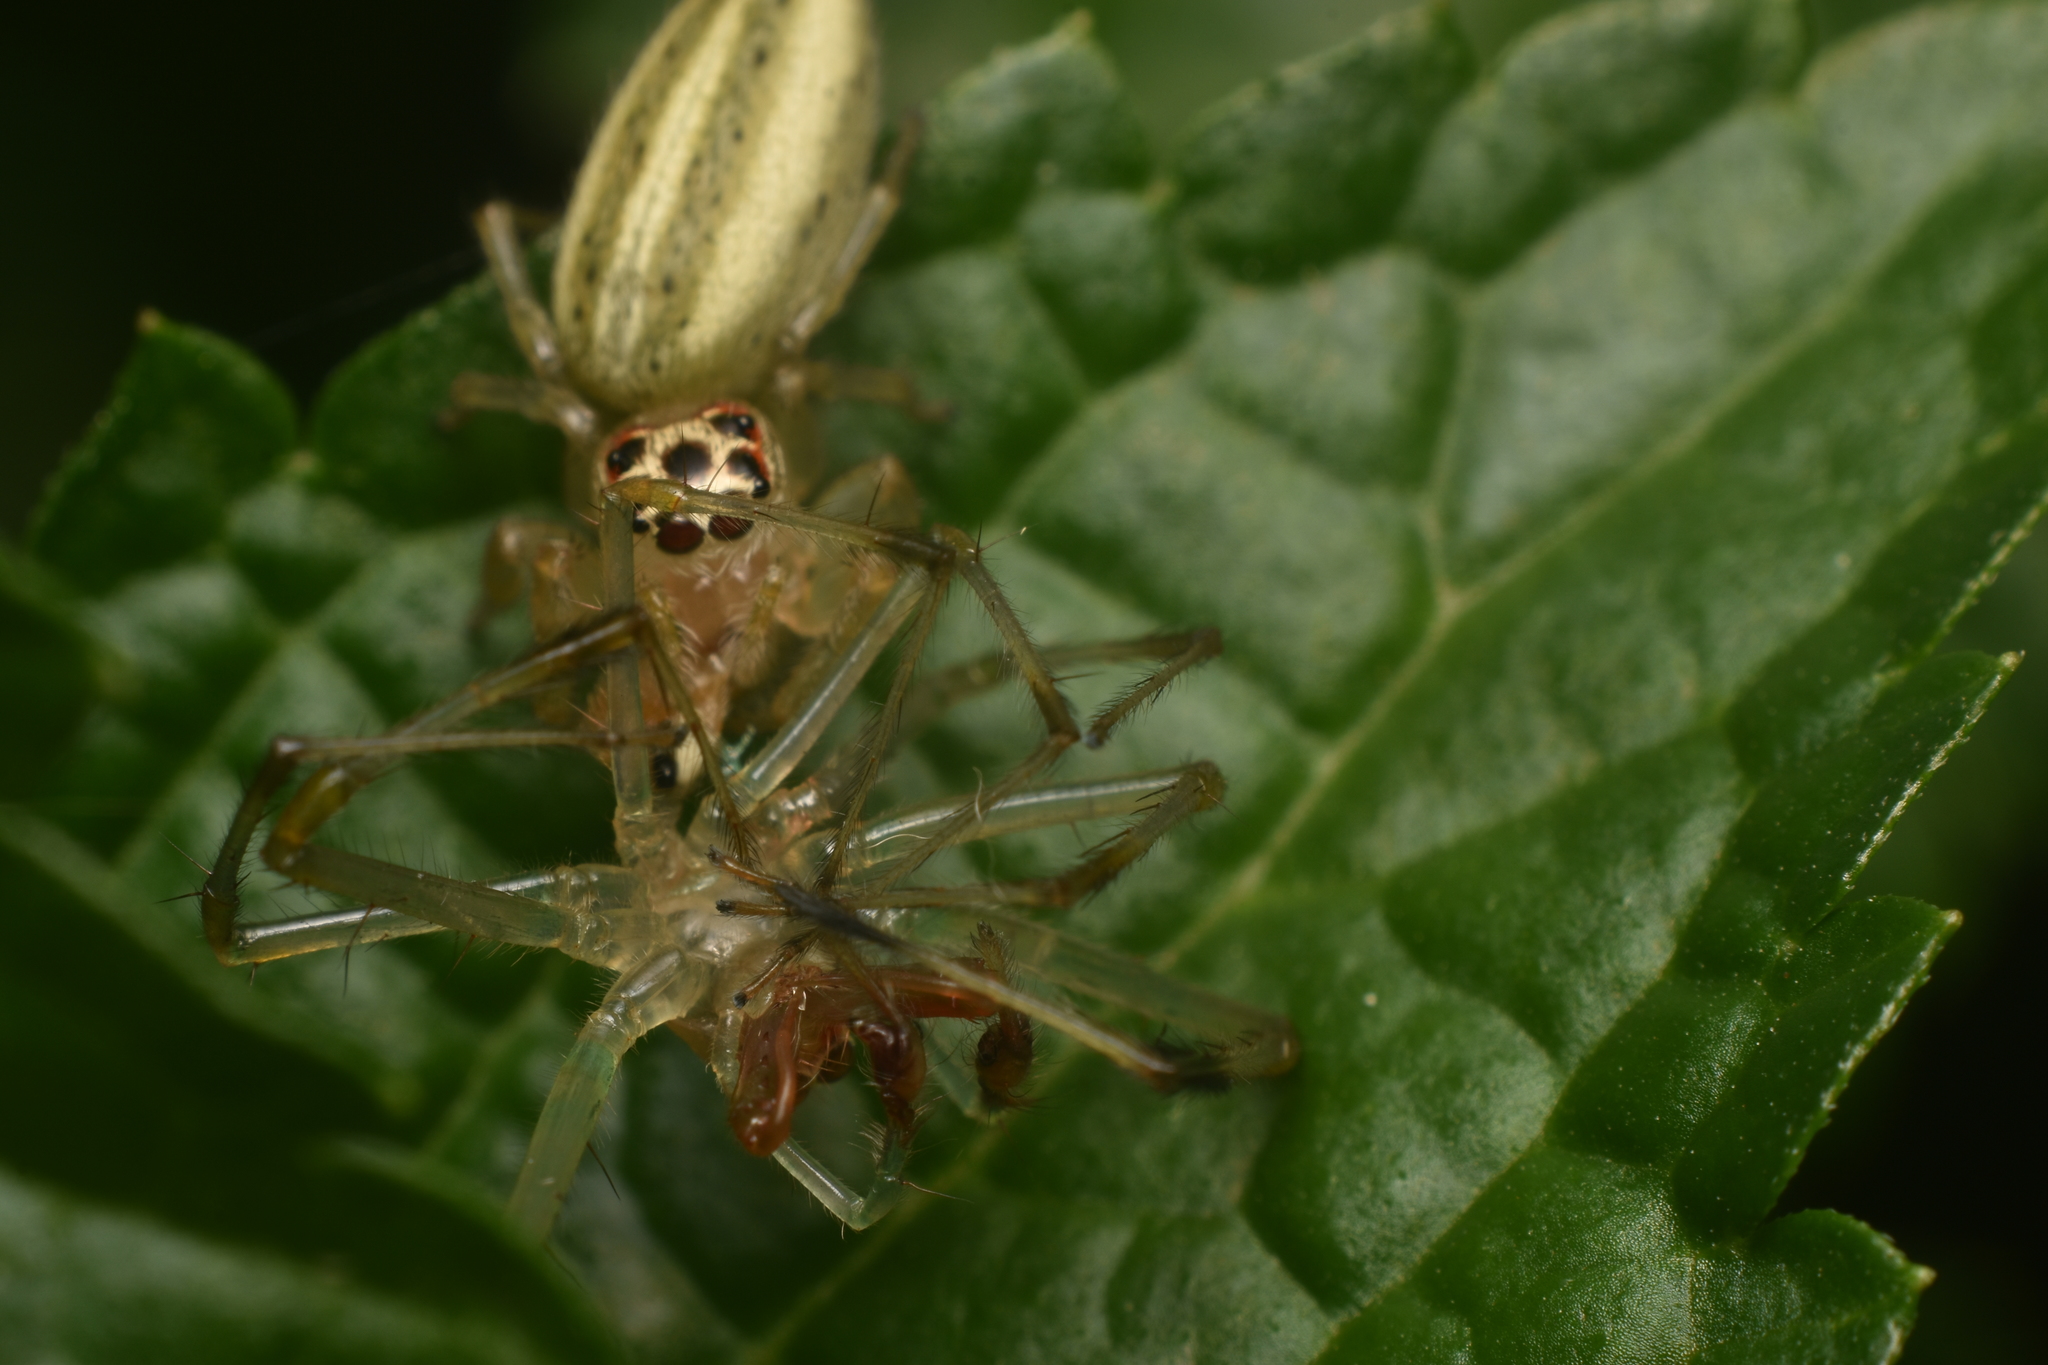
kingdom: Animalia
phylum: Arthropoda
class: Arachnida
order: Araneae
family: Salticidae
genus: Colonus
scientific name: Colonus sylvanus
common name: Jumping spiders
